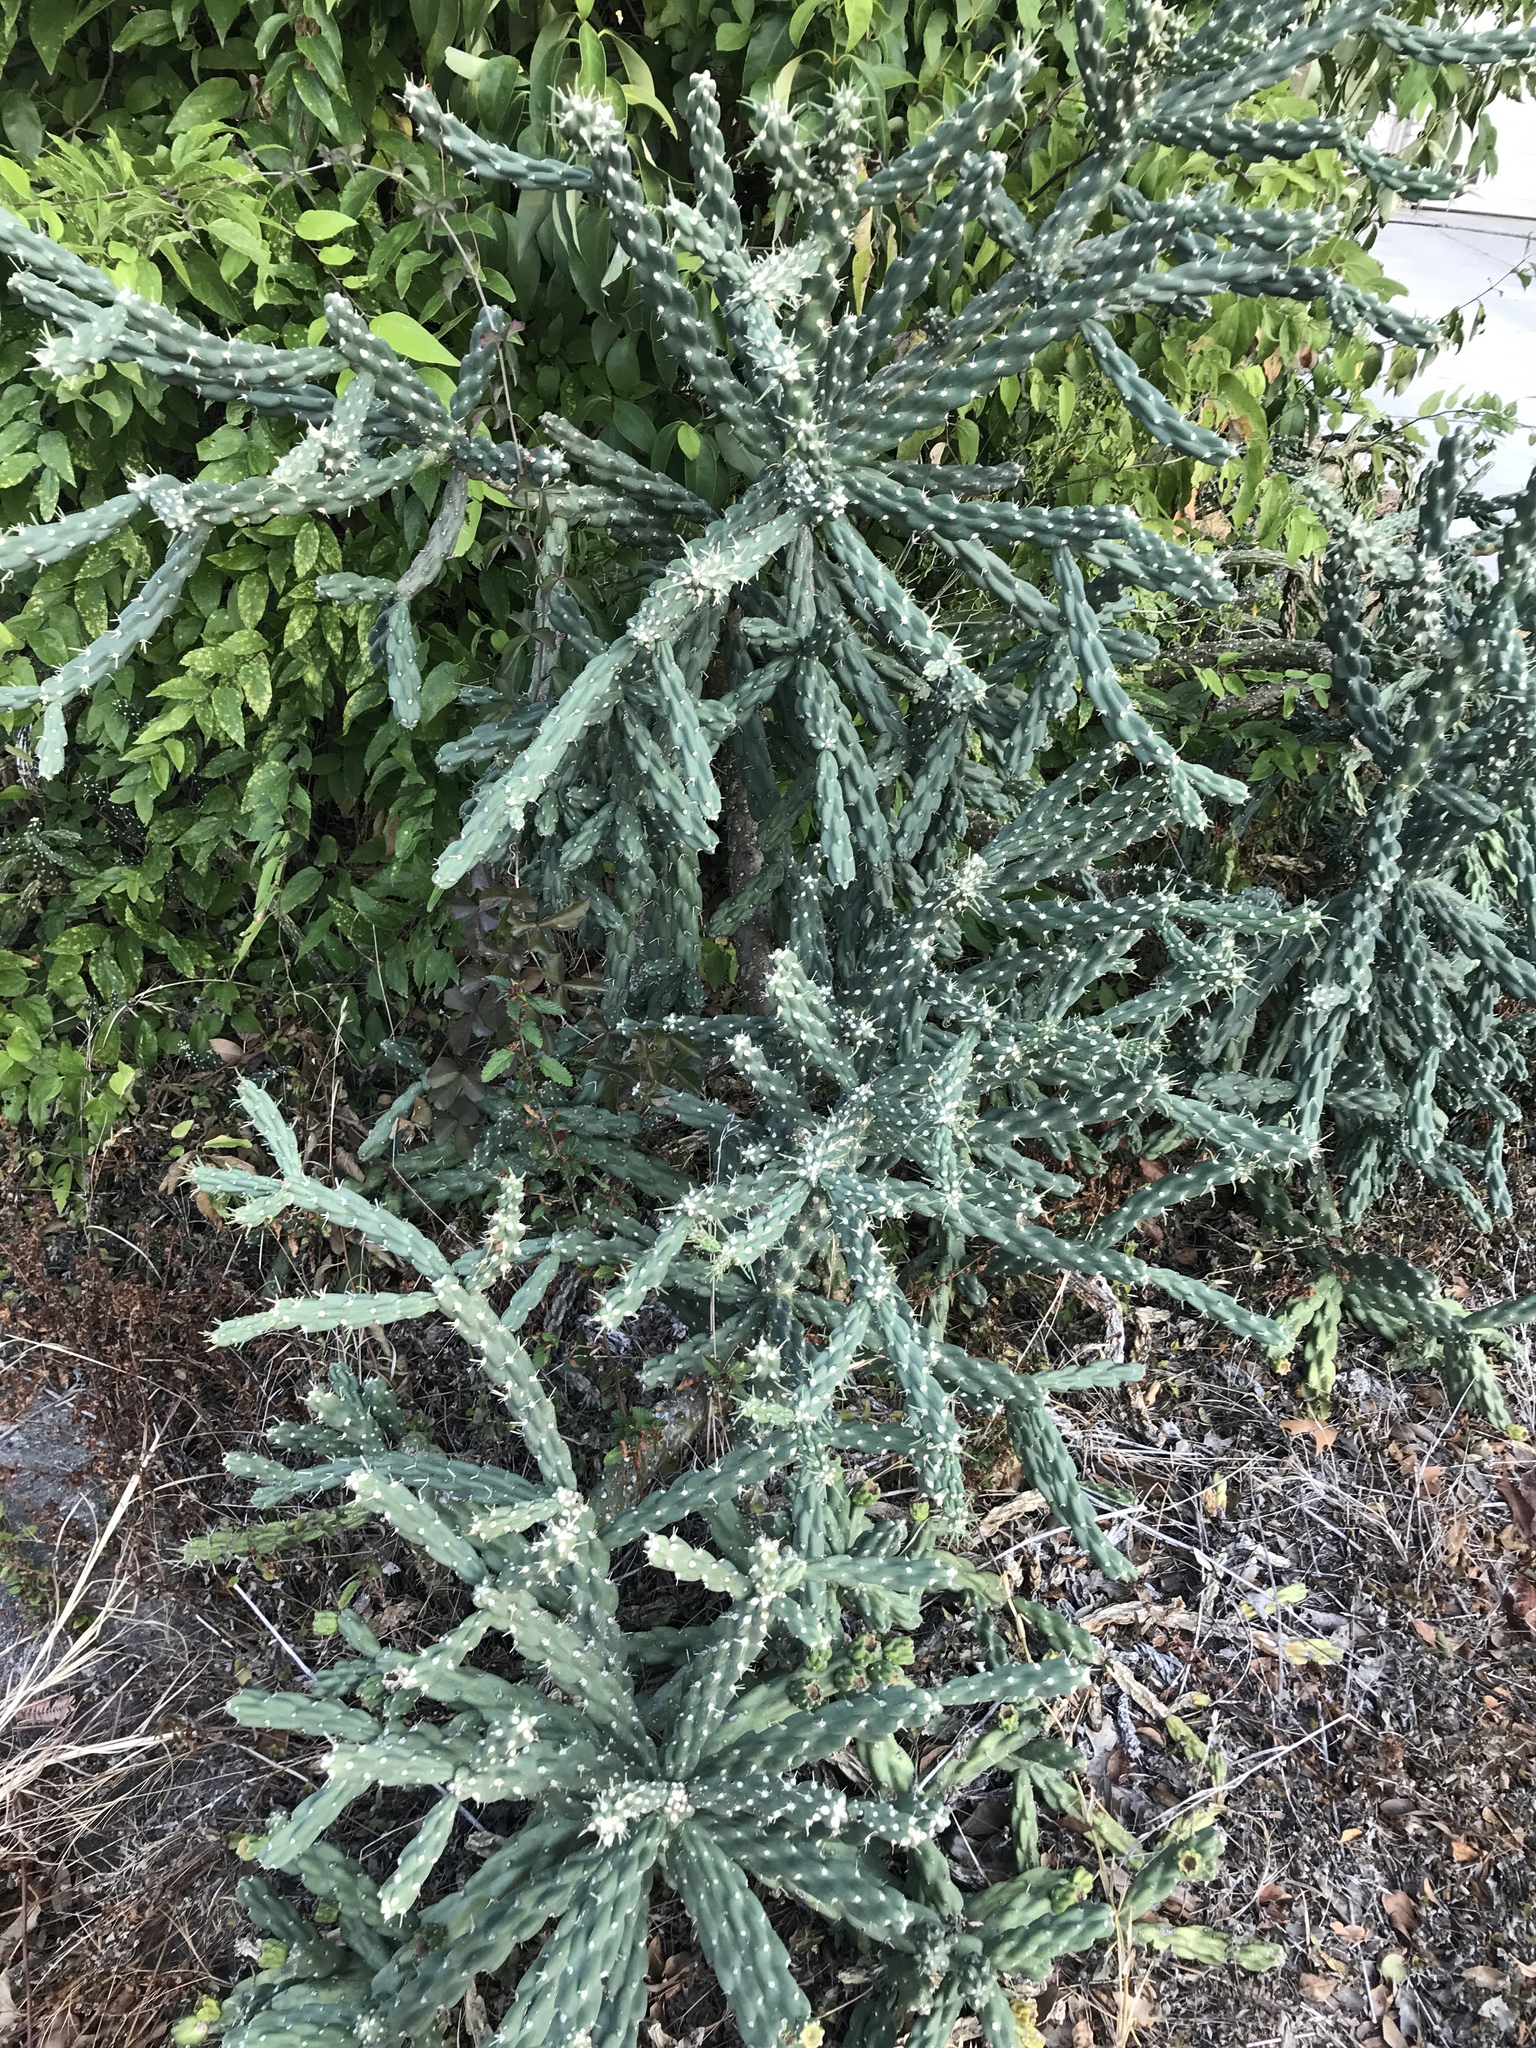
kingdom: Plantae
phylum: Tracheophyta
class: Magnoliopsida
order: Caryophyllales
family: Cactaceae
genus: Cylindropuntia
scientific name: Cylindropuntia imbricata
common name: Candelabrum cactus
